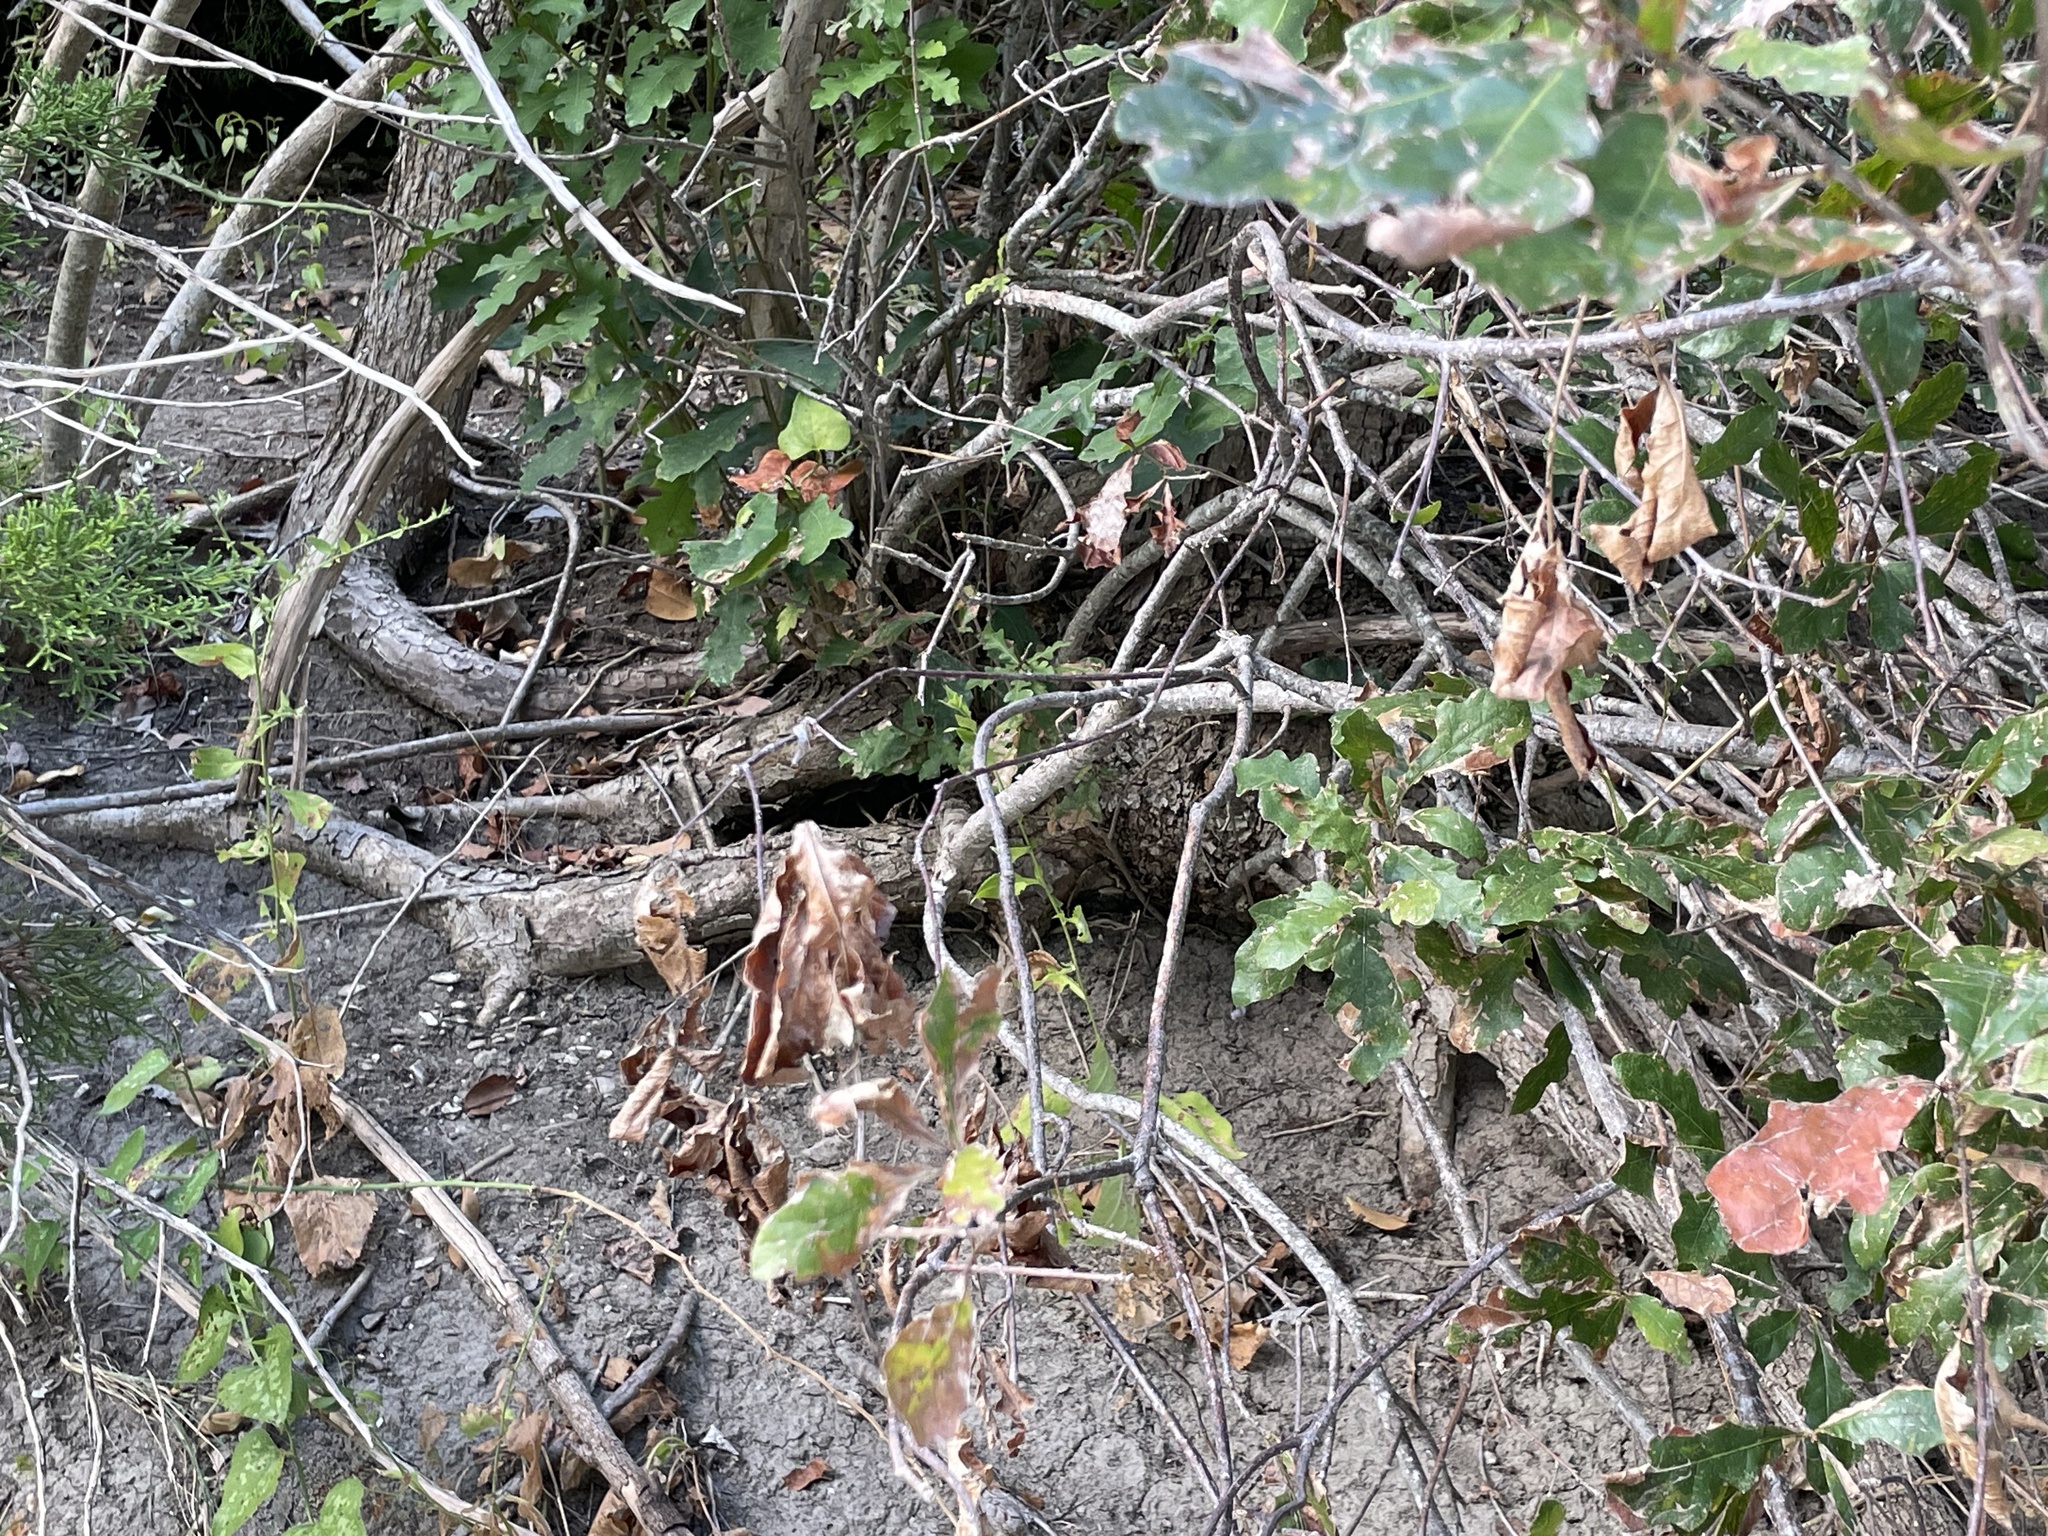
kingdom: Plantae
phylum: Tracheophyta
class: Magnoliopsida
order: Fagales
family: Fagaceae
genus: Quercus
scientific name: Quercus sinuata
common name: Durand oak
